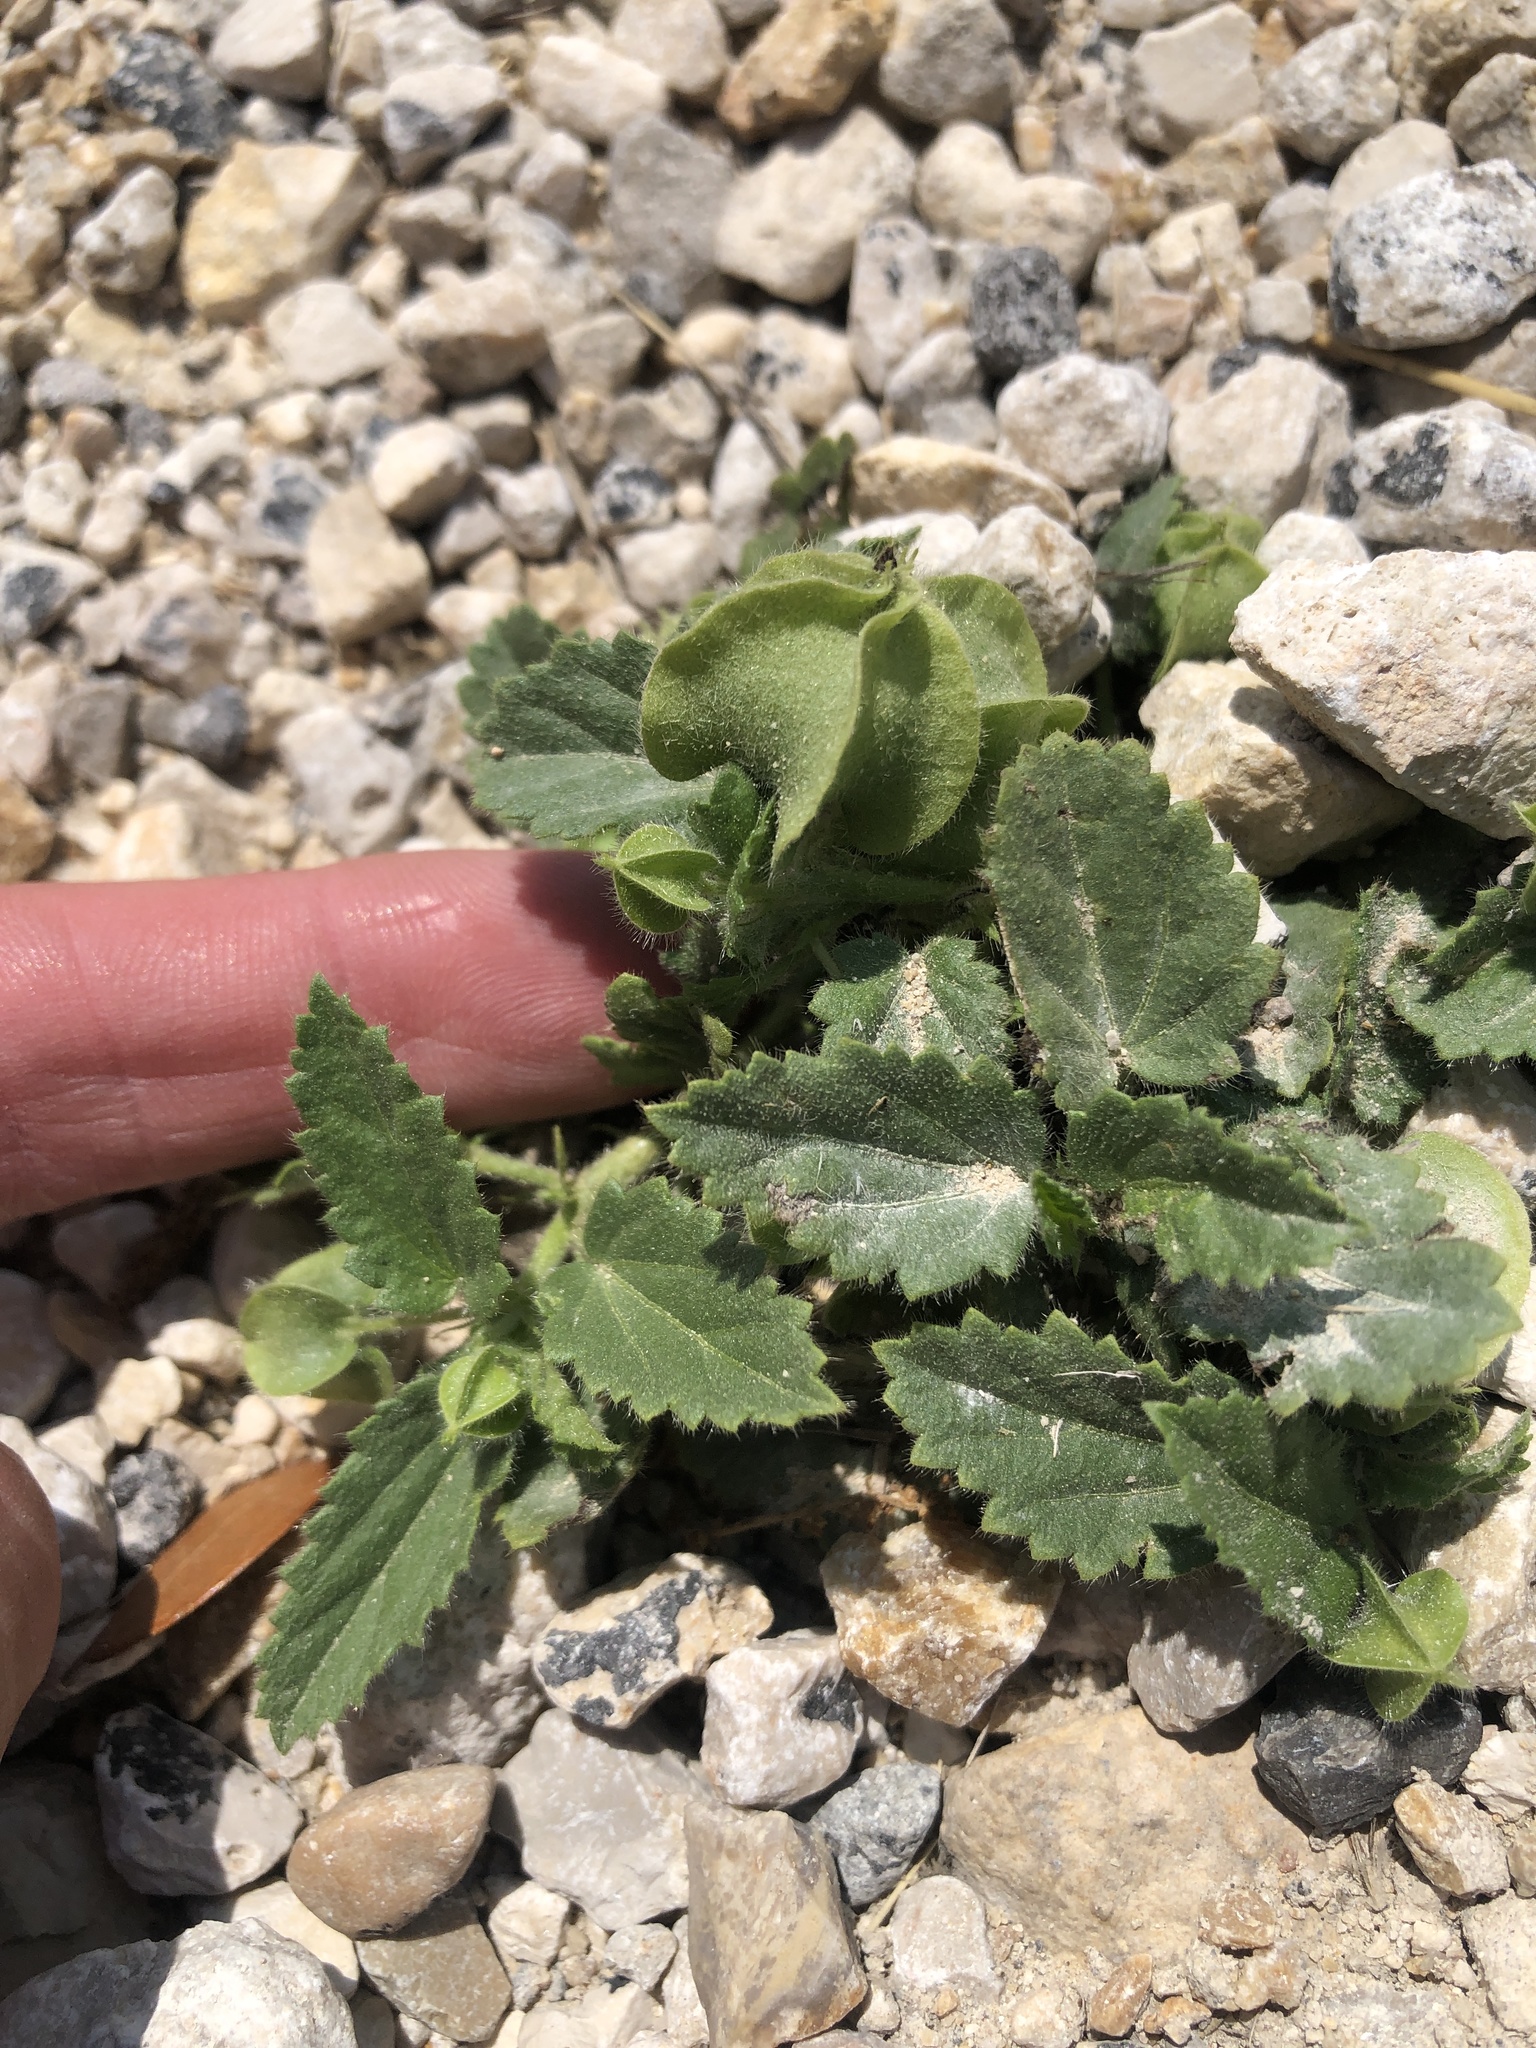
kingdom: Plantae
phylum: Tracheophyta
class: Magnoliopsida
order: Malvales
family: Malvaceae
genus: Rhynchosida
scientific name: Rhynchosida physocalyx
